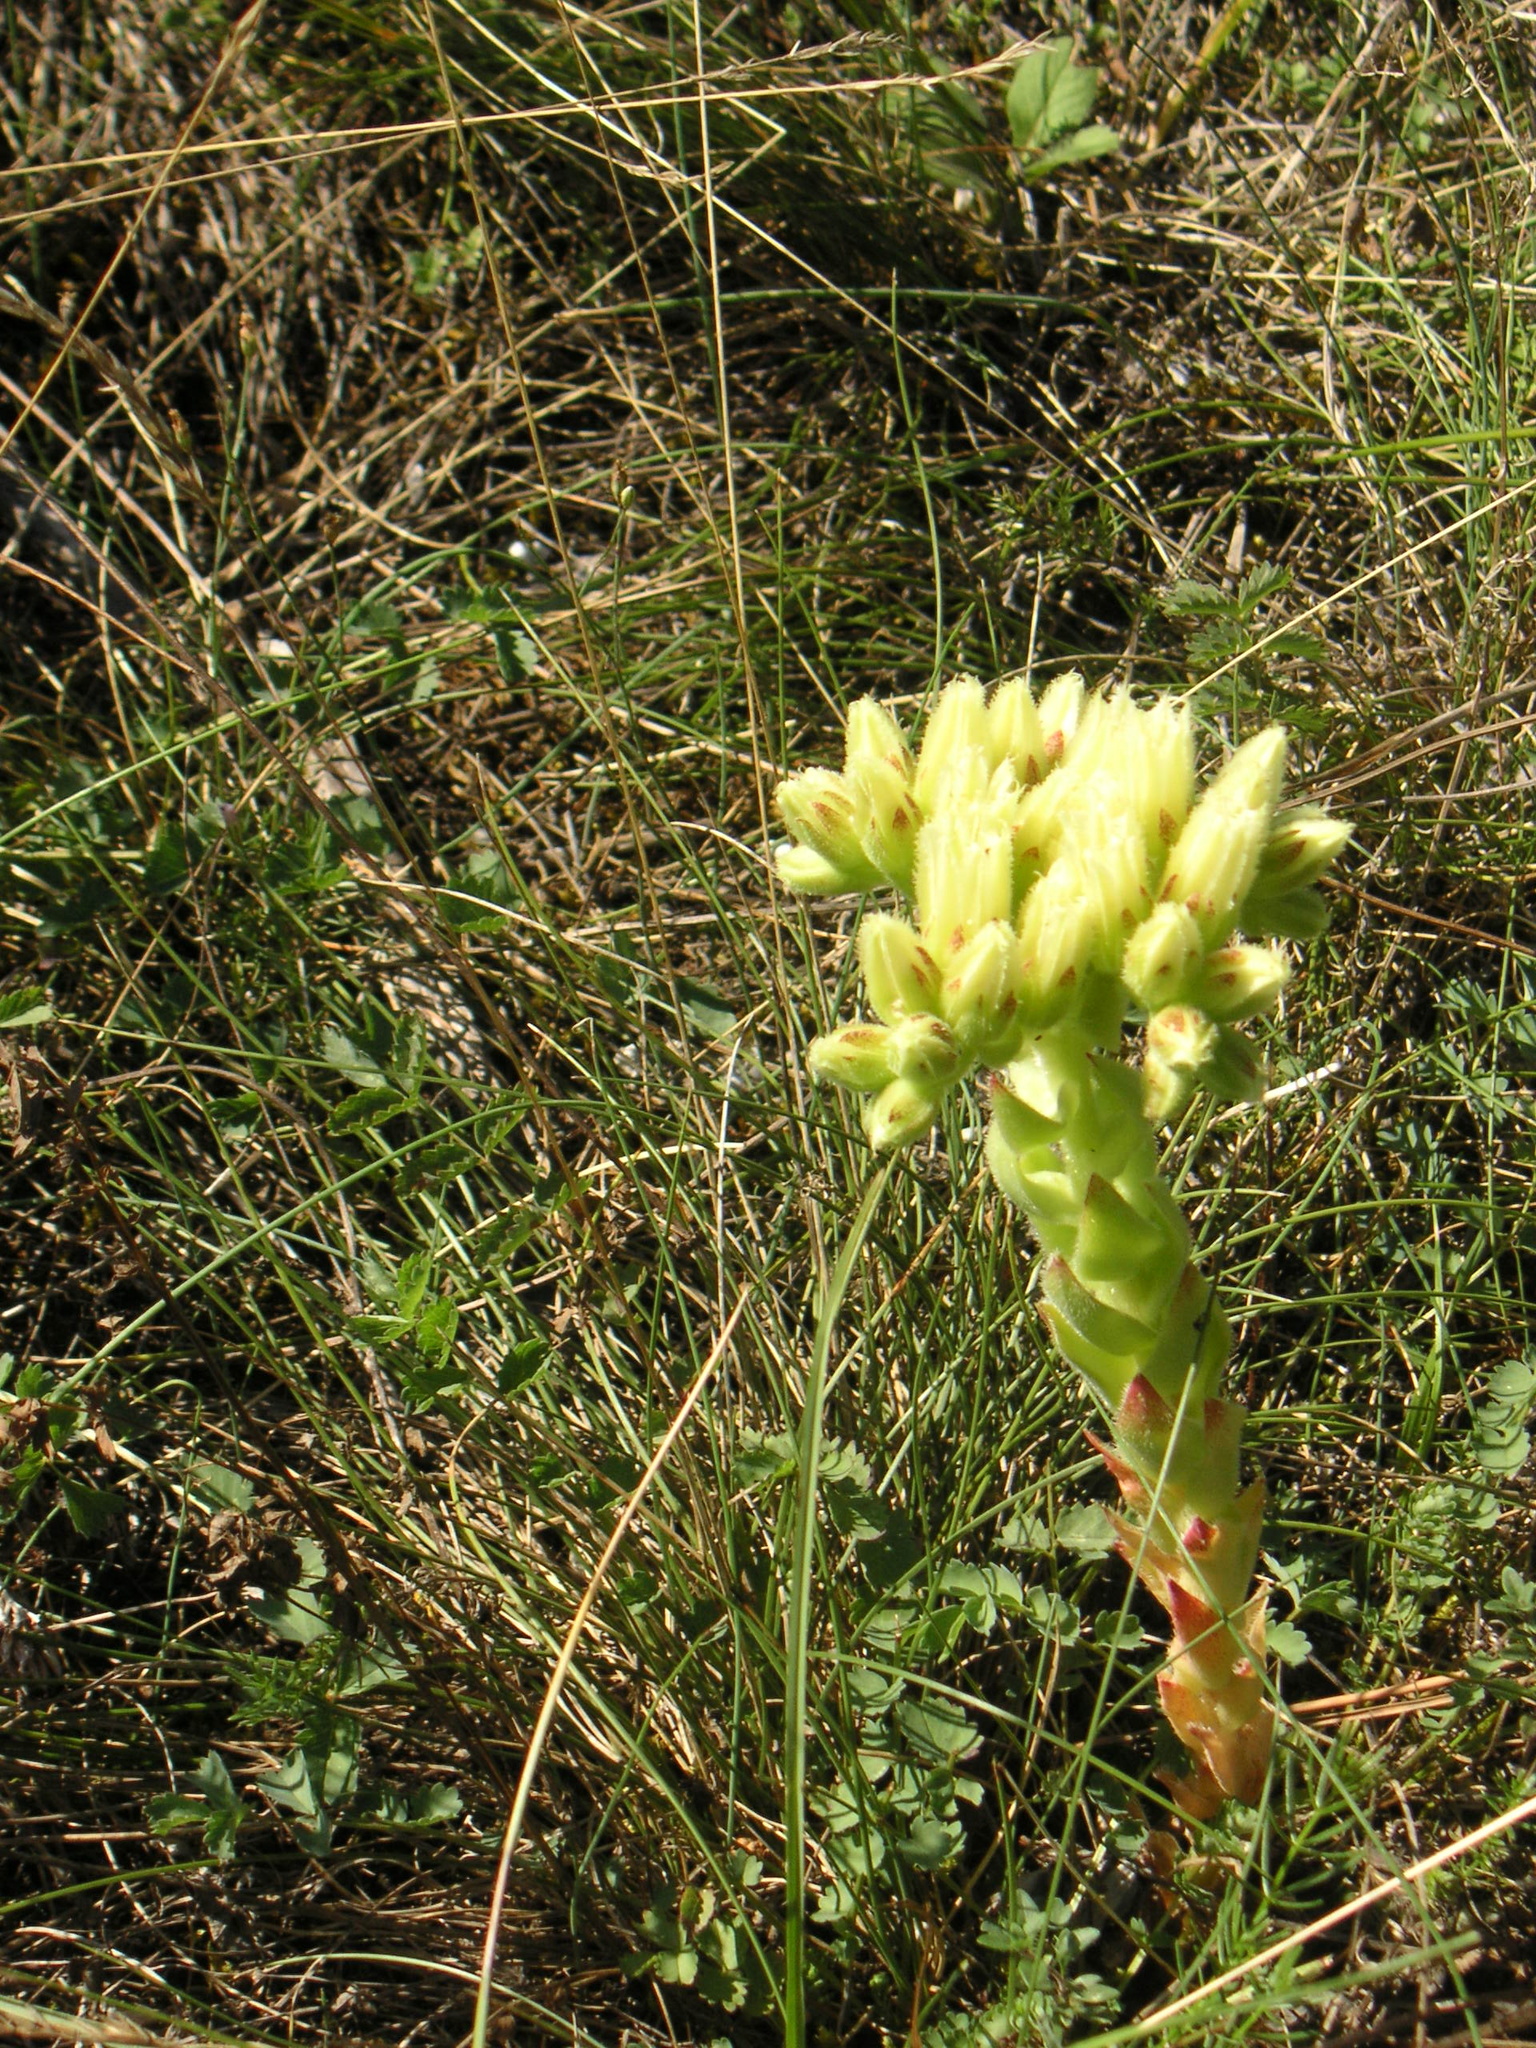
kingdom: Plantae
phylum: Tracheophyta
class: Magnoliopsida
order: Saxifragales
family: Crassulaceae
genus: Sempervivum
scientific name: Sempervivum globiferum
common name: Rolling hen-and-chicks
